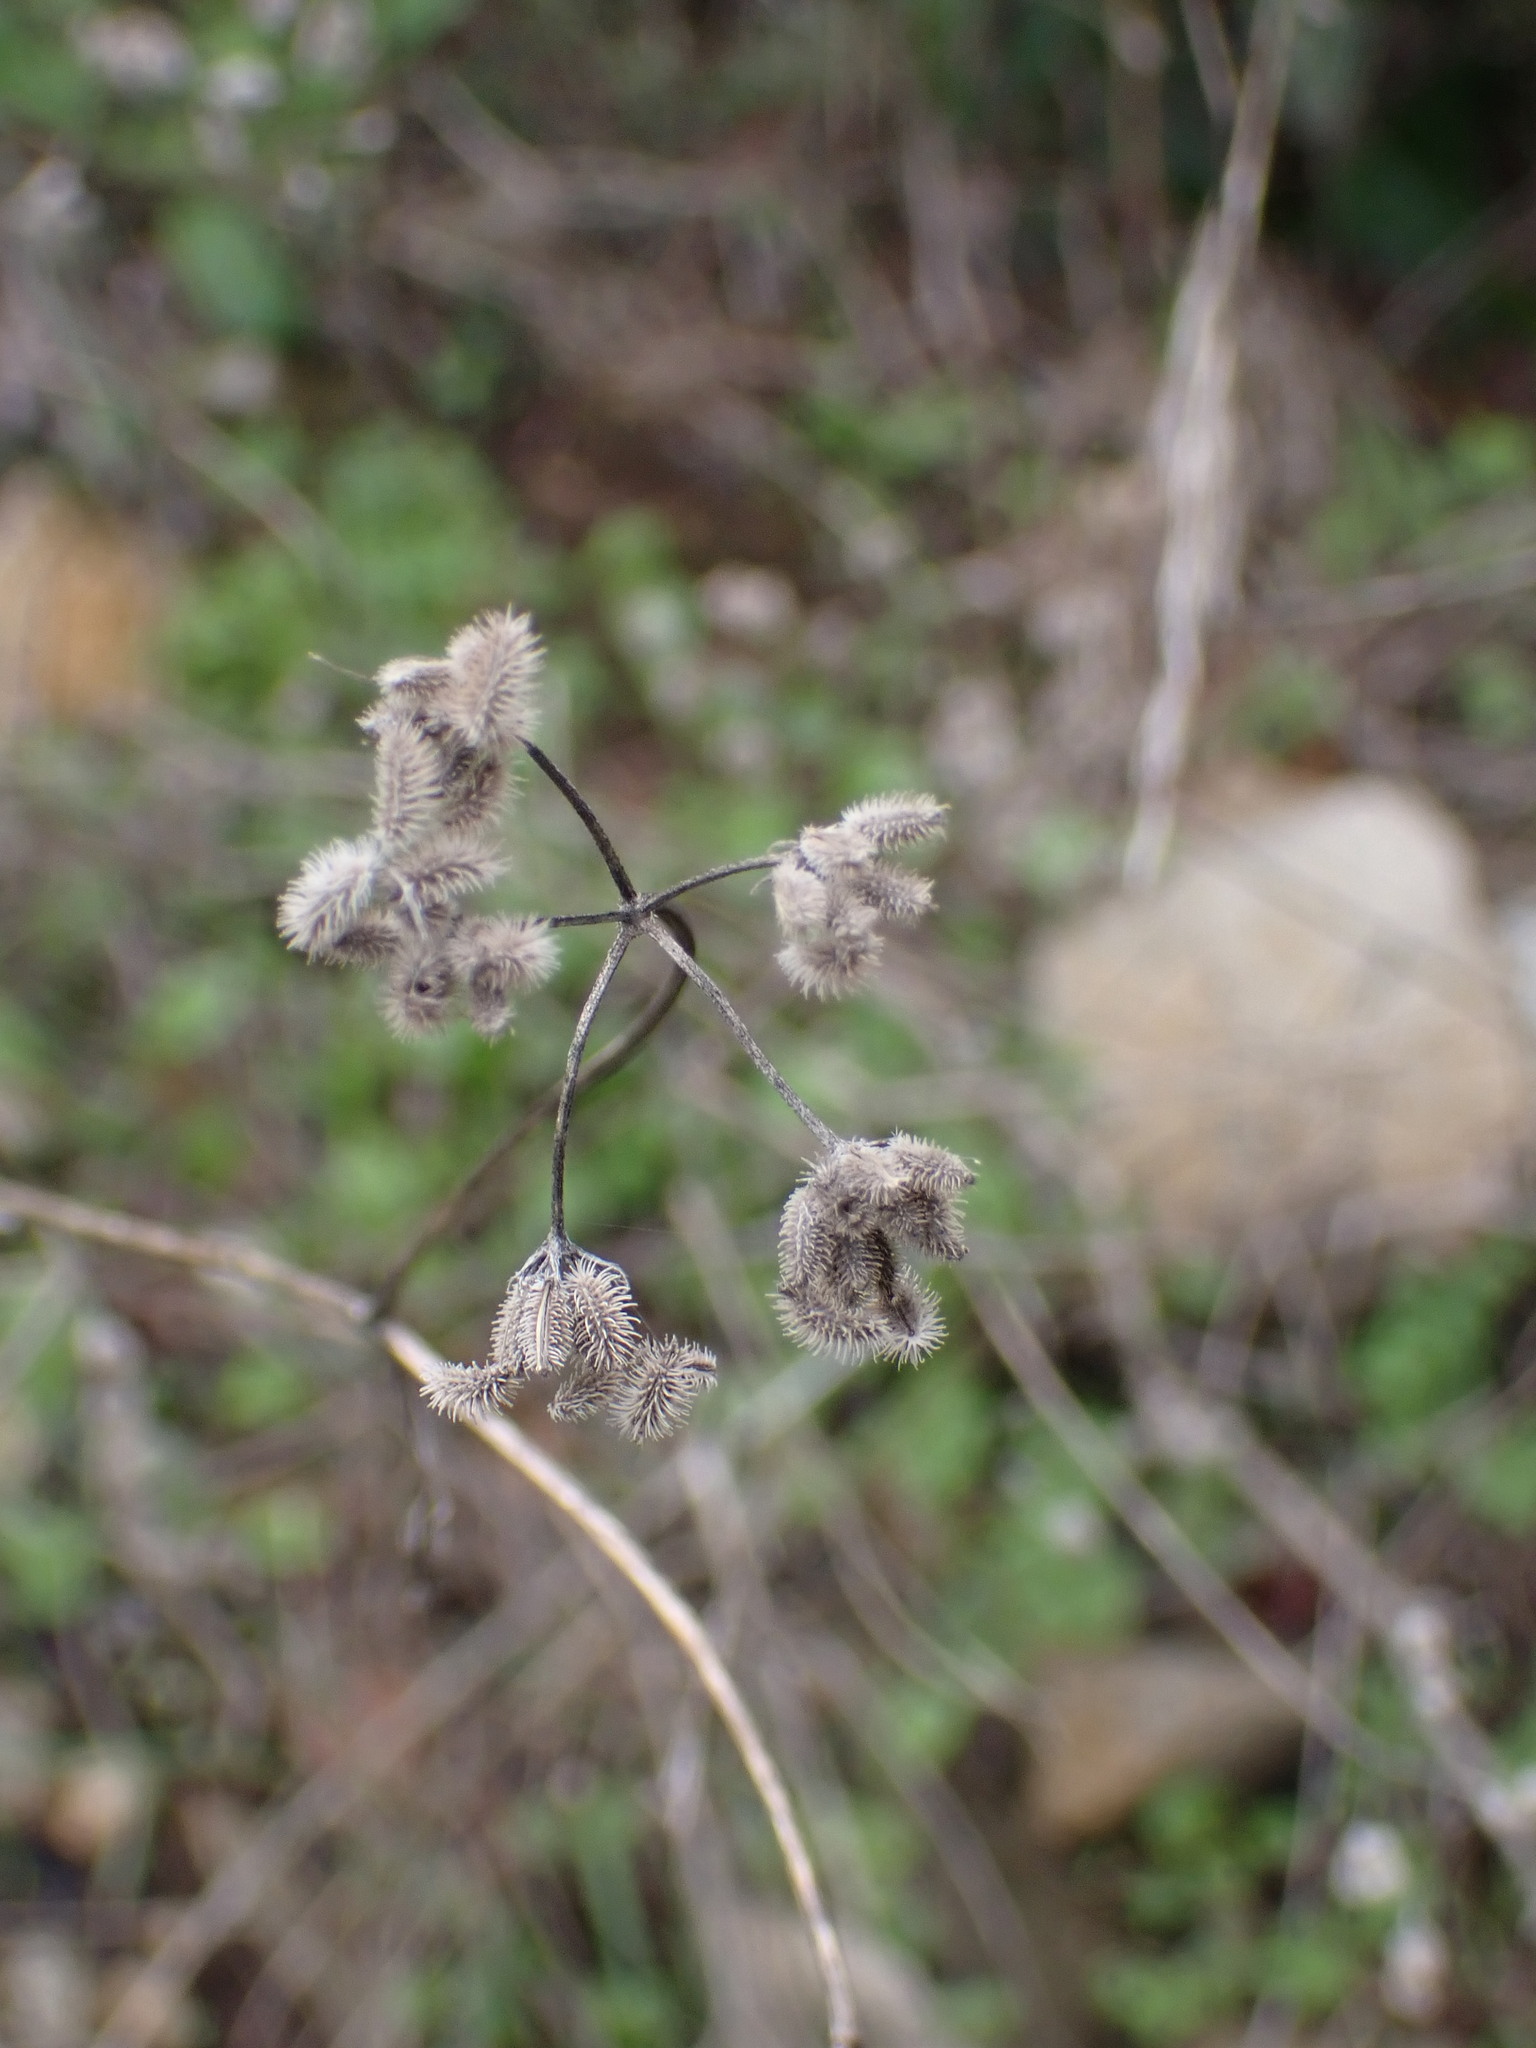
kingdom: Plantae
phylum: Tracheophyta
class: Magnoliopsida
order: Apiales
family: Apiaceae
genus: Torilis
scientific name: Torilis arvensis
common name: Spreading hedge-parsley
